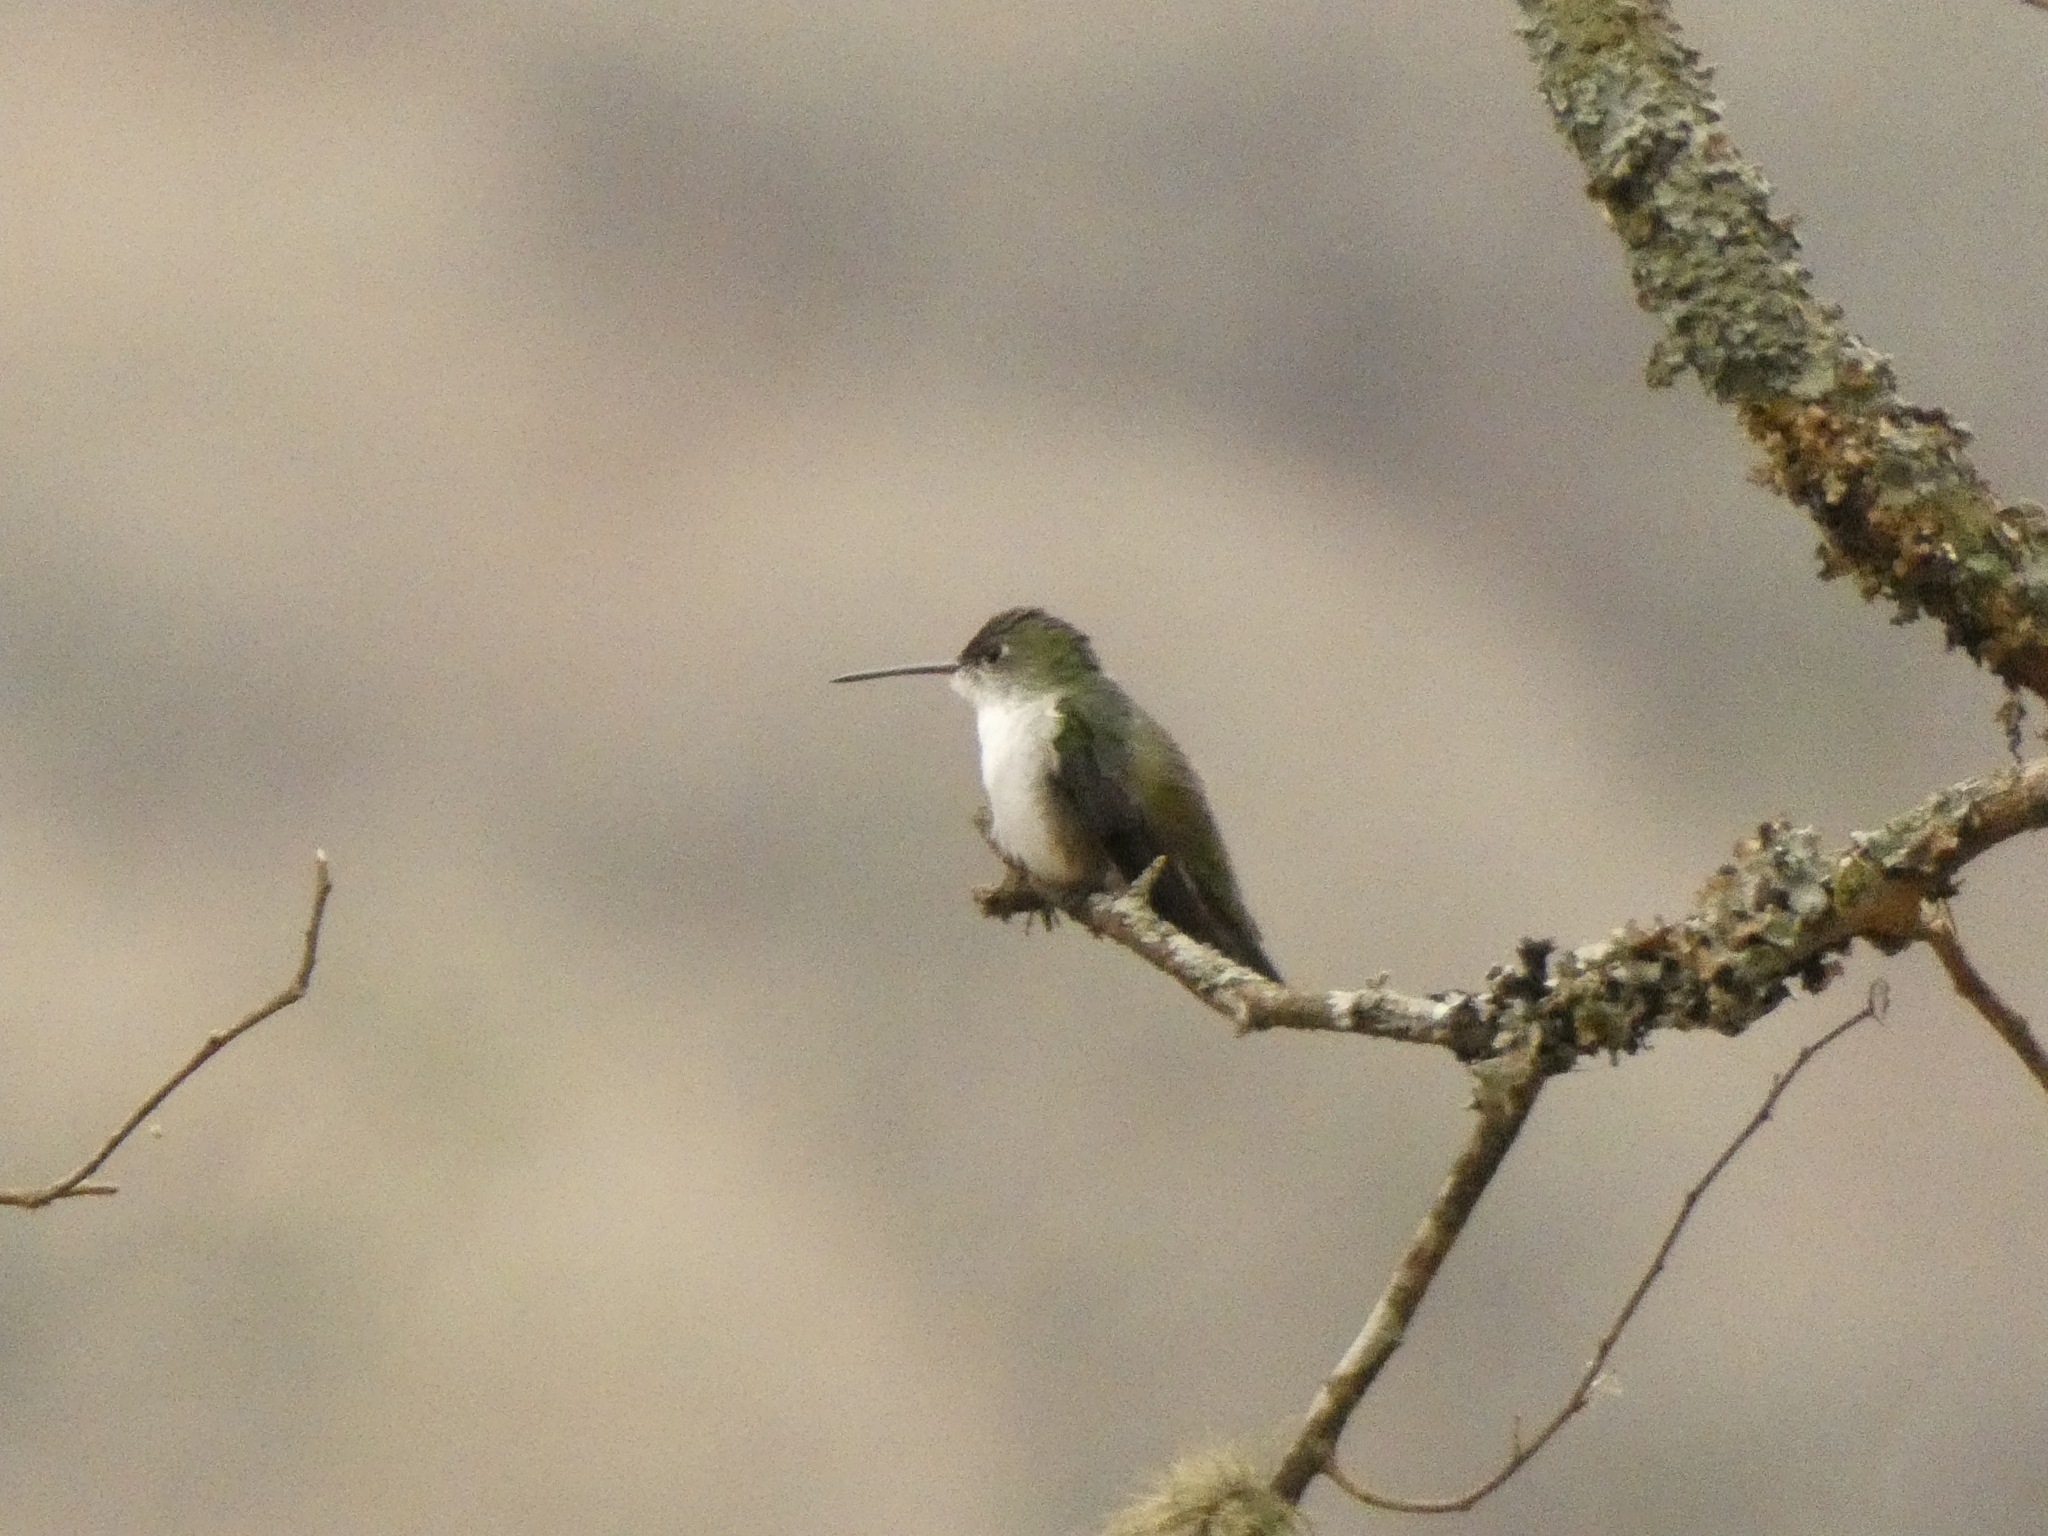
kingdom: Animalia
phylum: Chordata
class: Aves
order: Apodiformes
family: Trochilidae
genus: Elliotomyia
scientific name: Elliotomyia chionogaster
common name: White-bellied hummingbird
